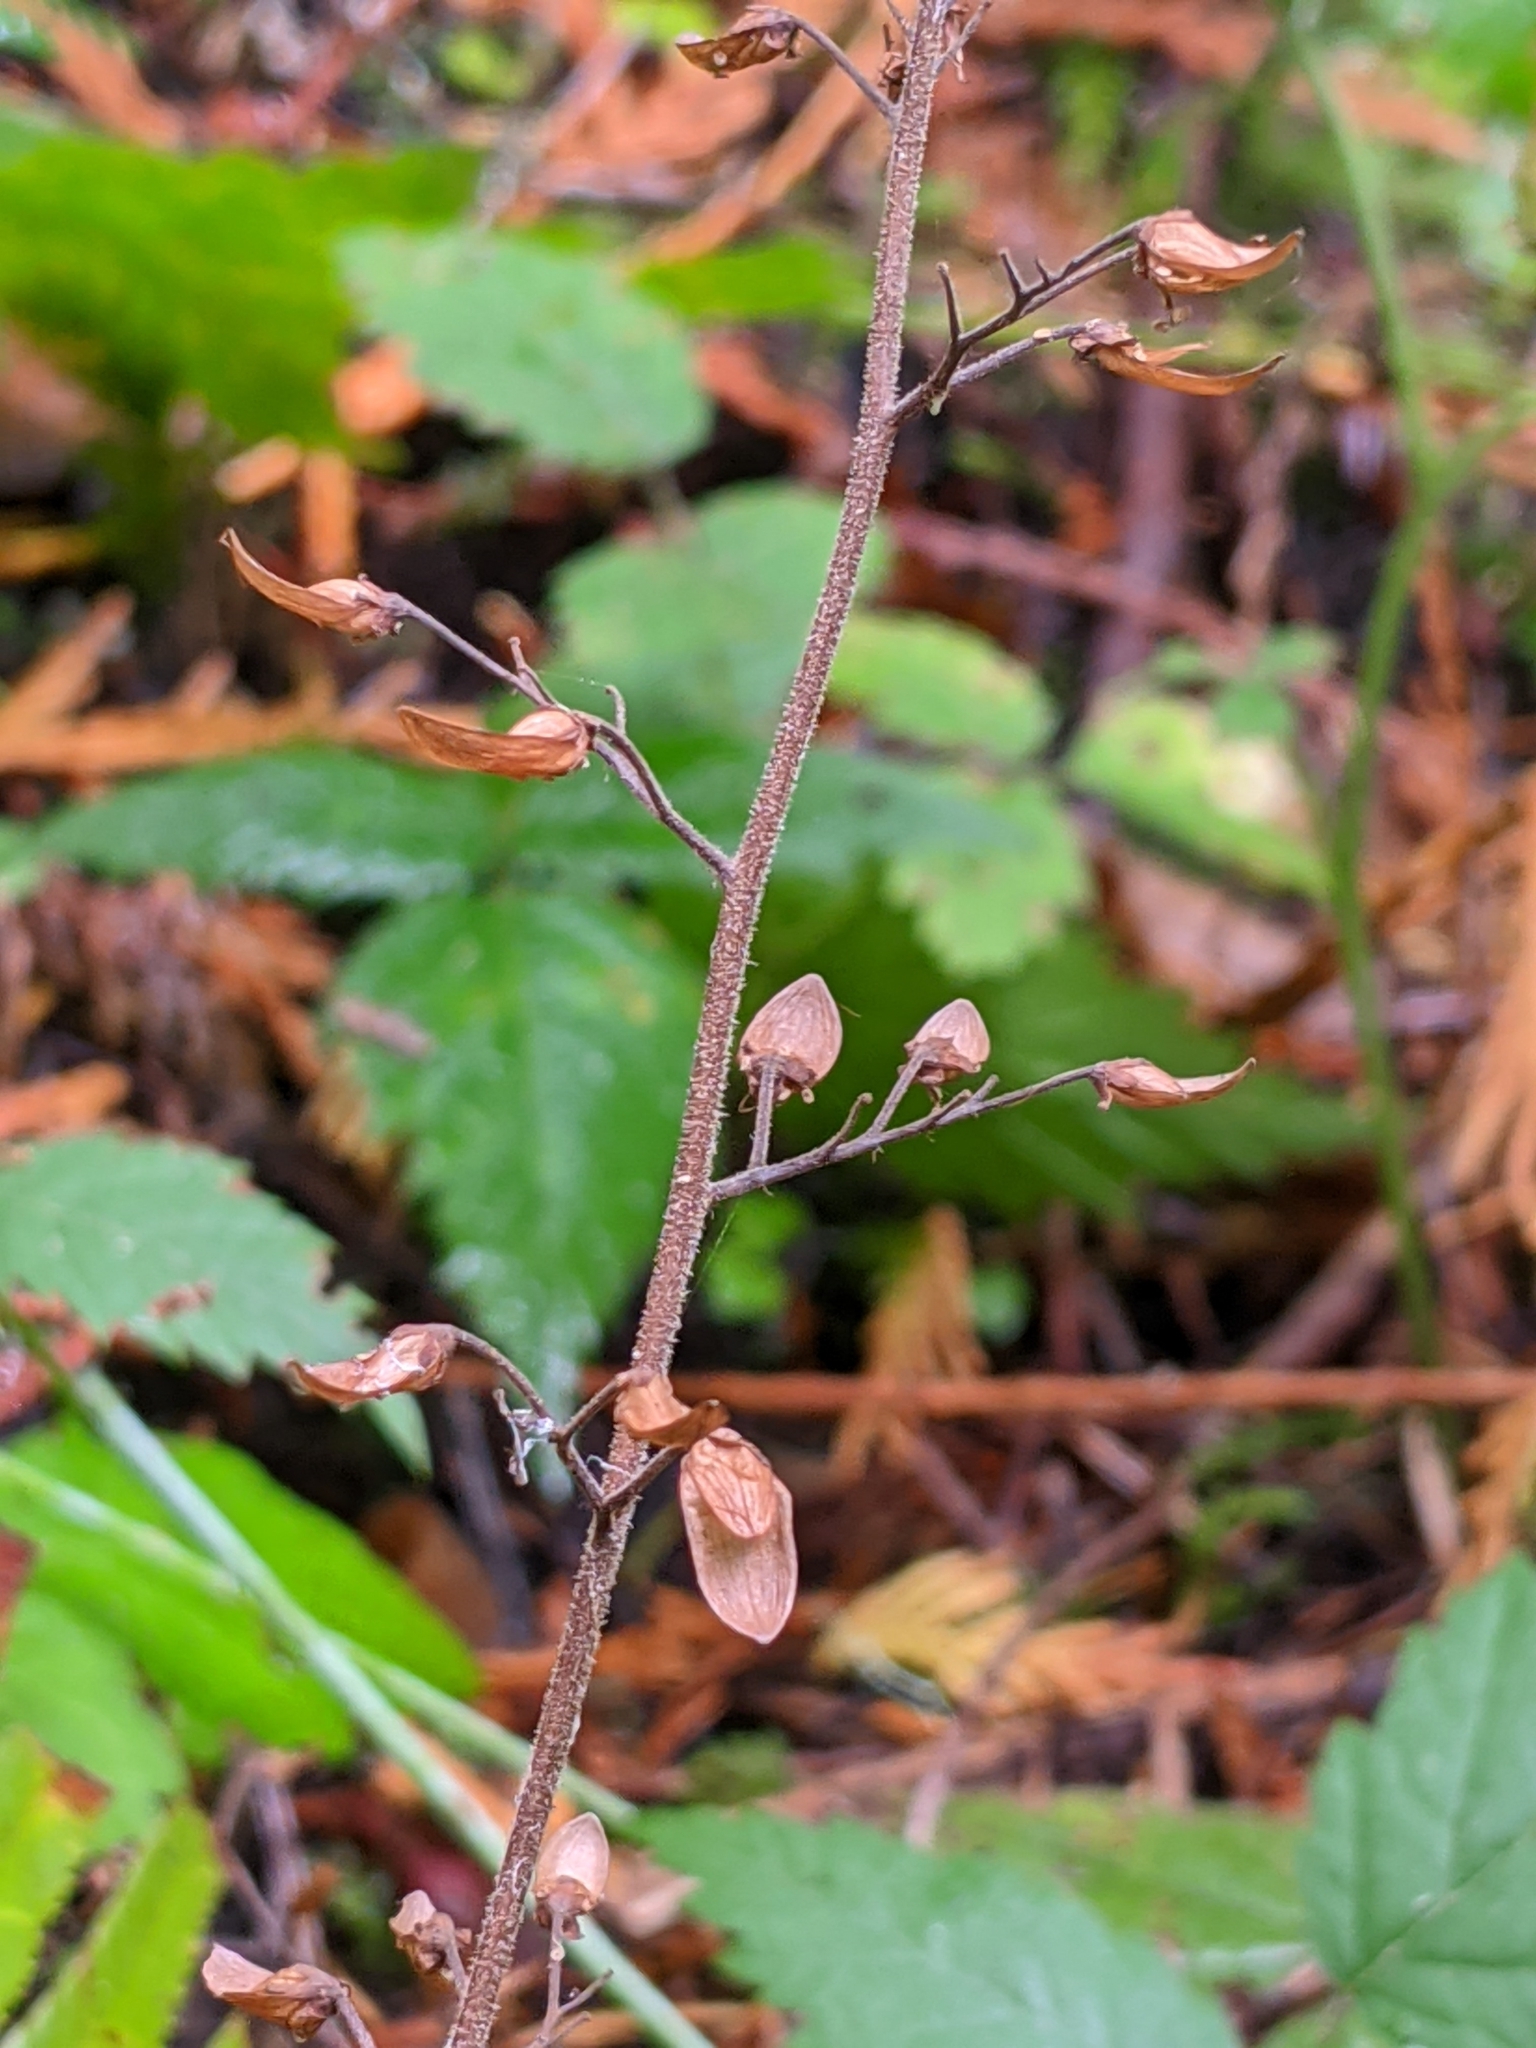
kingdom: Plantae
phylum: Tracheophyta
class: Magnoliopsida
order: Saxifragales
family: Saxifragaceae
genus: Tiarella
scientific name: Tiarella trifoliata
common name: Sugar-scoop
